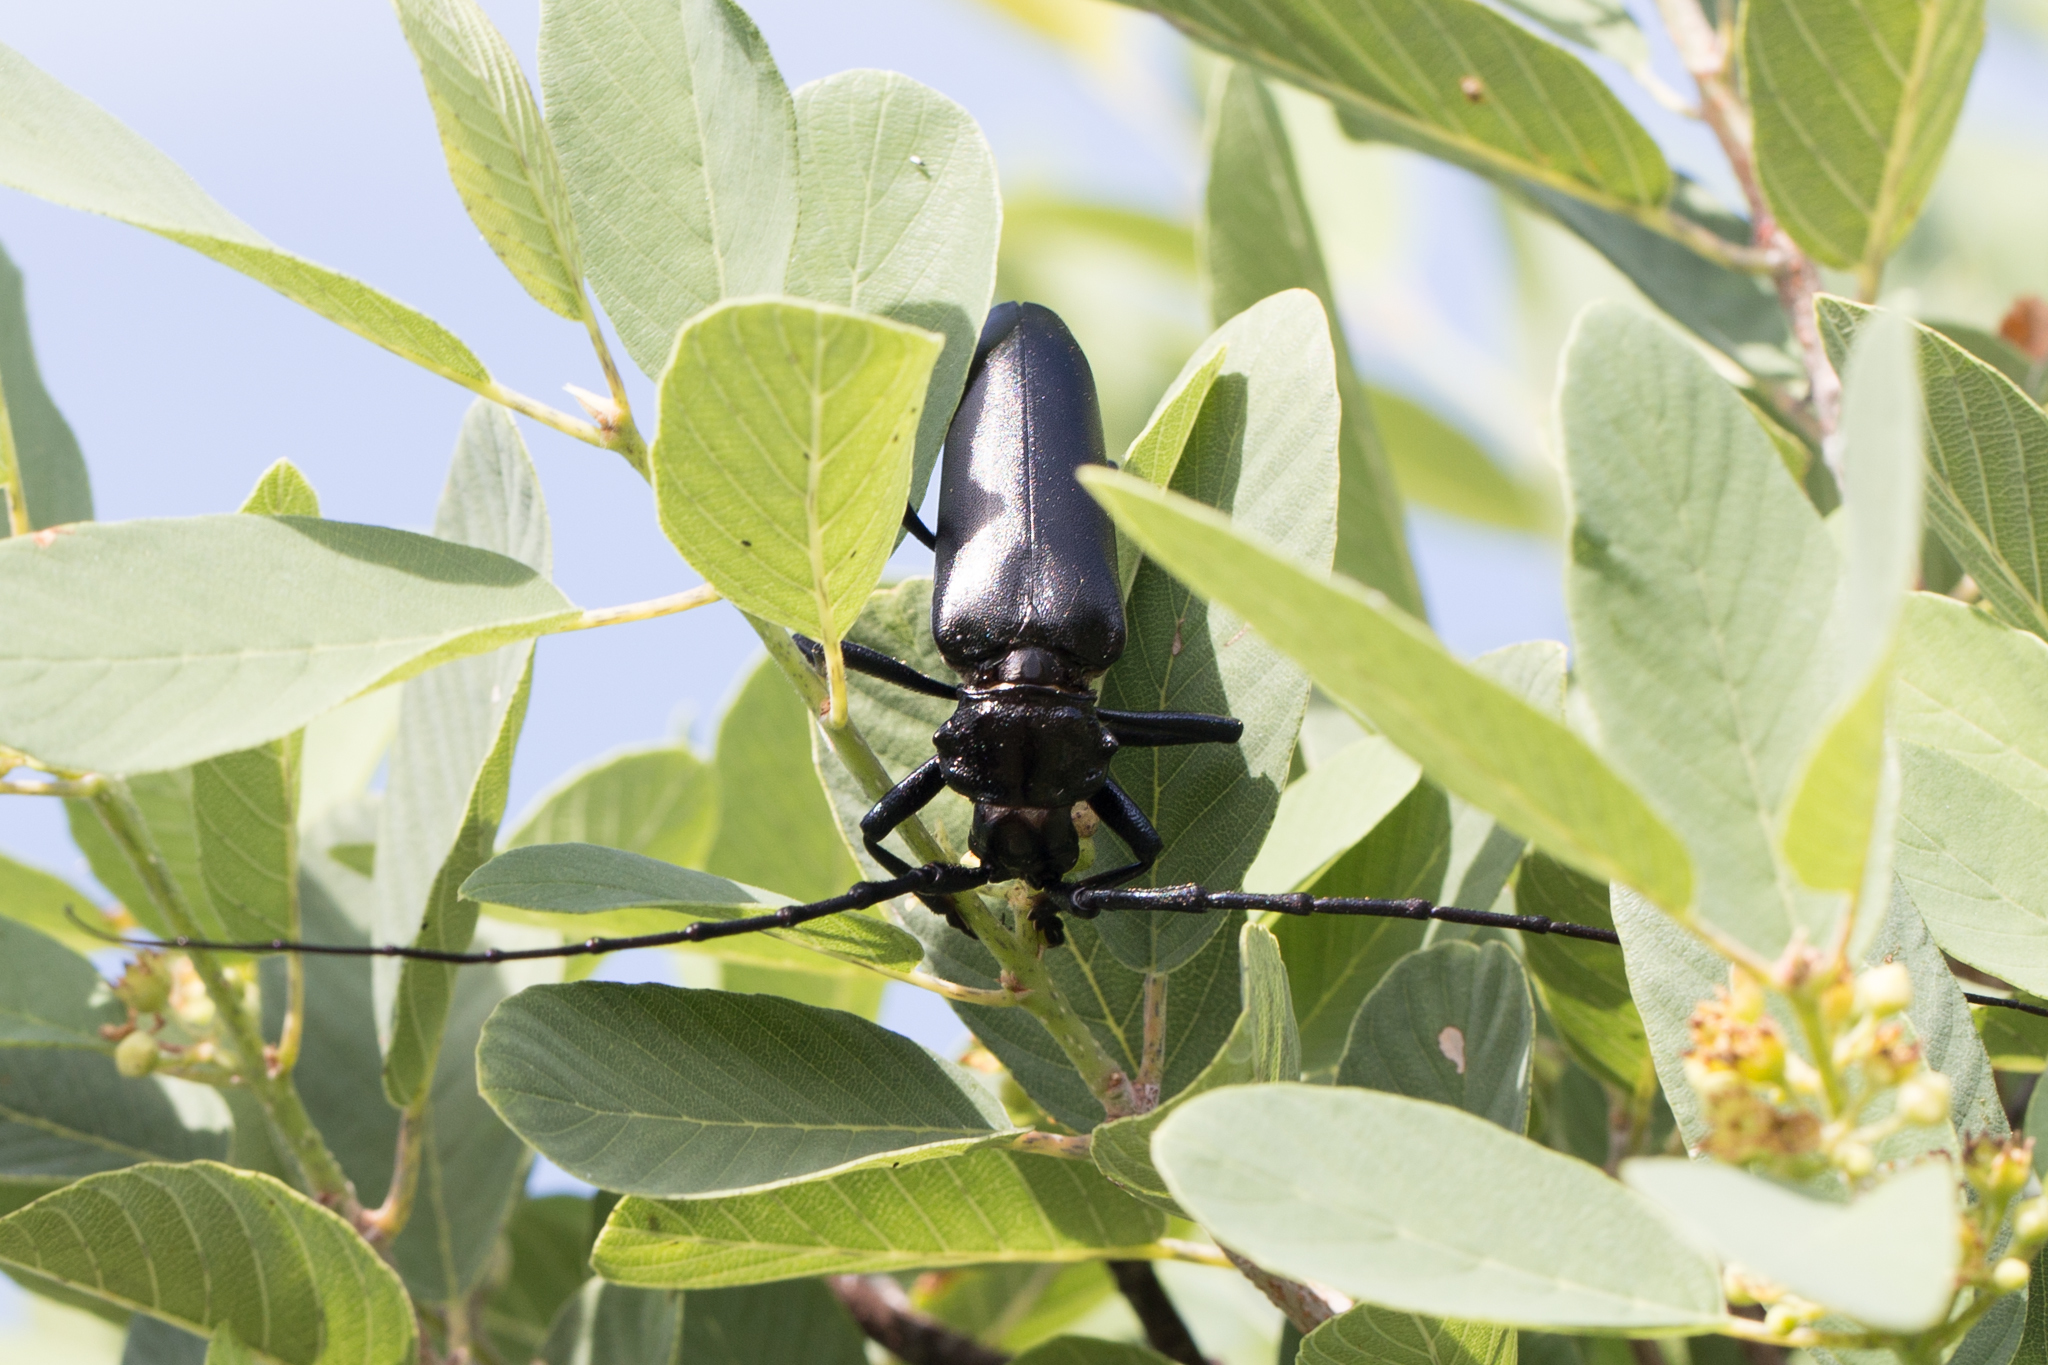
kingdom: Animalia
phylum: Arthropoda
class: Insecta
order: Coleoptera
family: Cerambycidae
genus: Stenaspis
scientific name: Stenaspis solitaria
